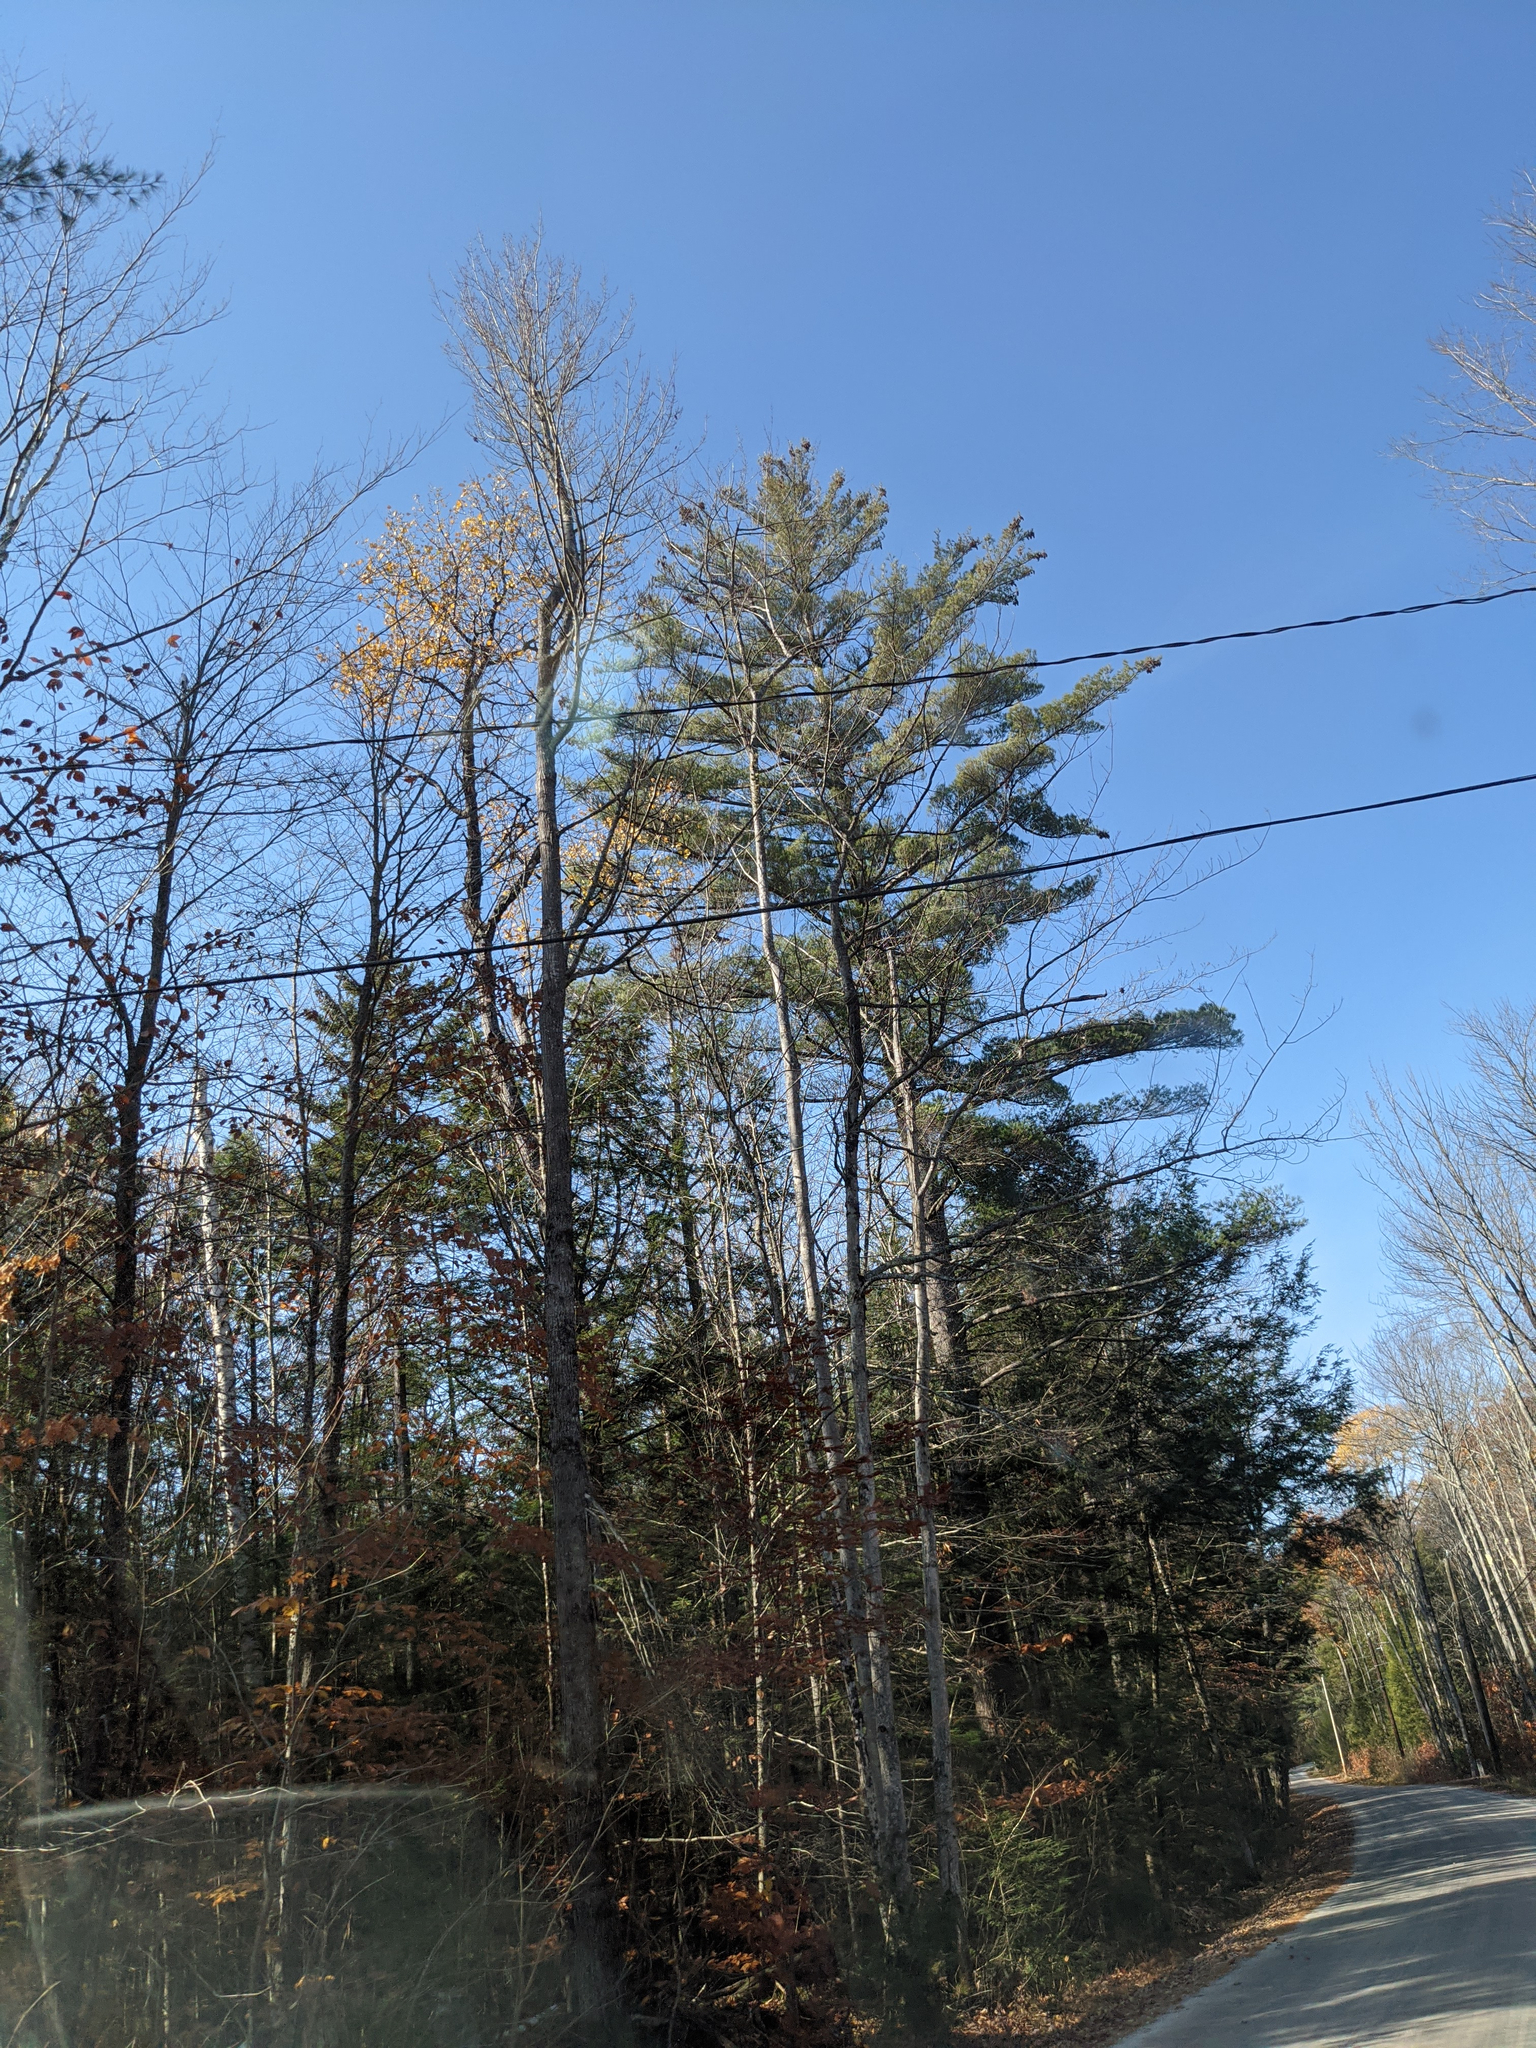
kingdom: Plantae
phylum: Tracheophyta
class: Pinopsida
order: Pinales
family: Pinaceae
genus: Pinus
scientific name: Pinus strobus
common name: Weymouth pine
